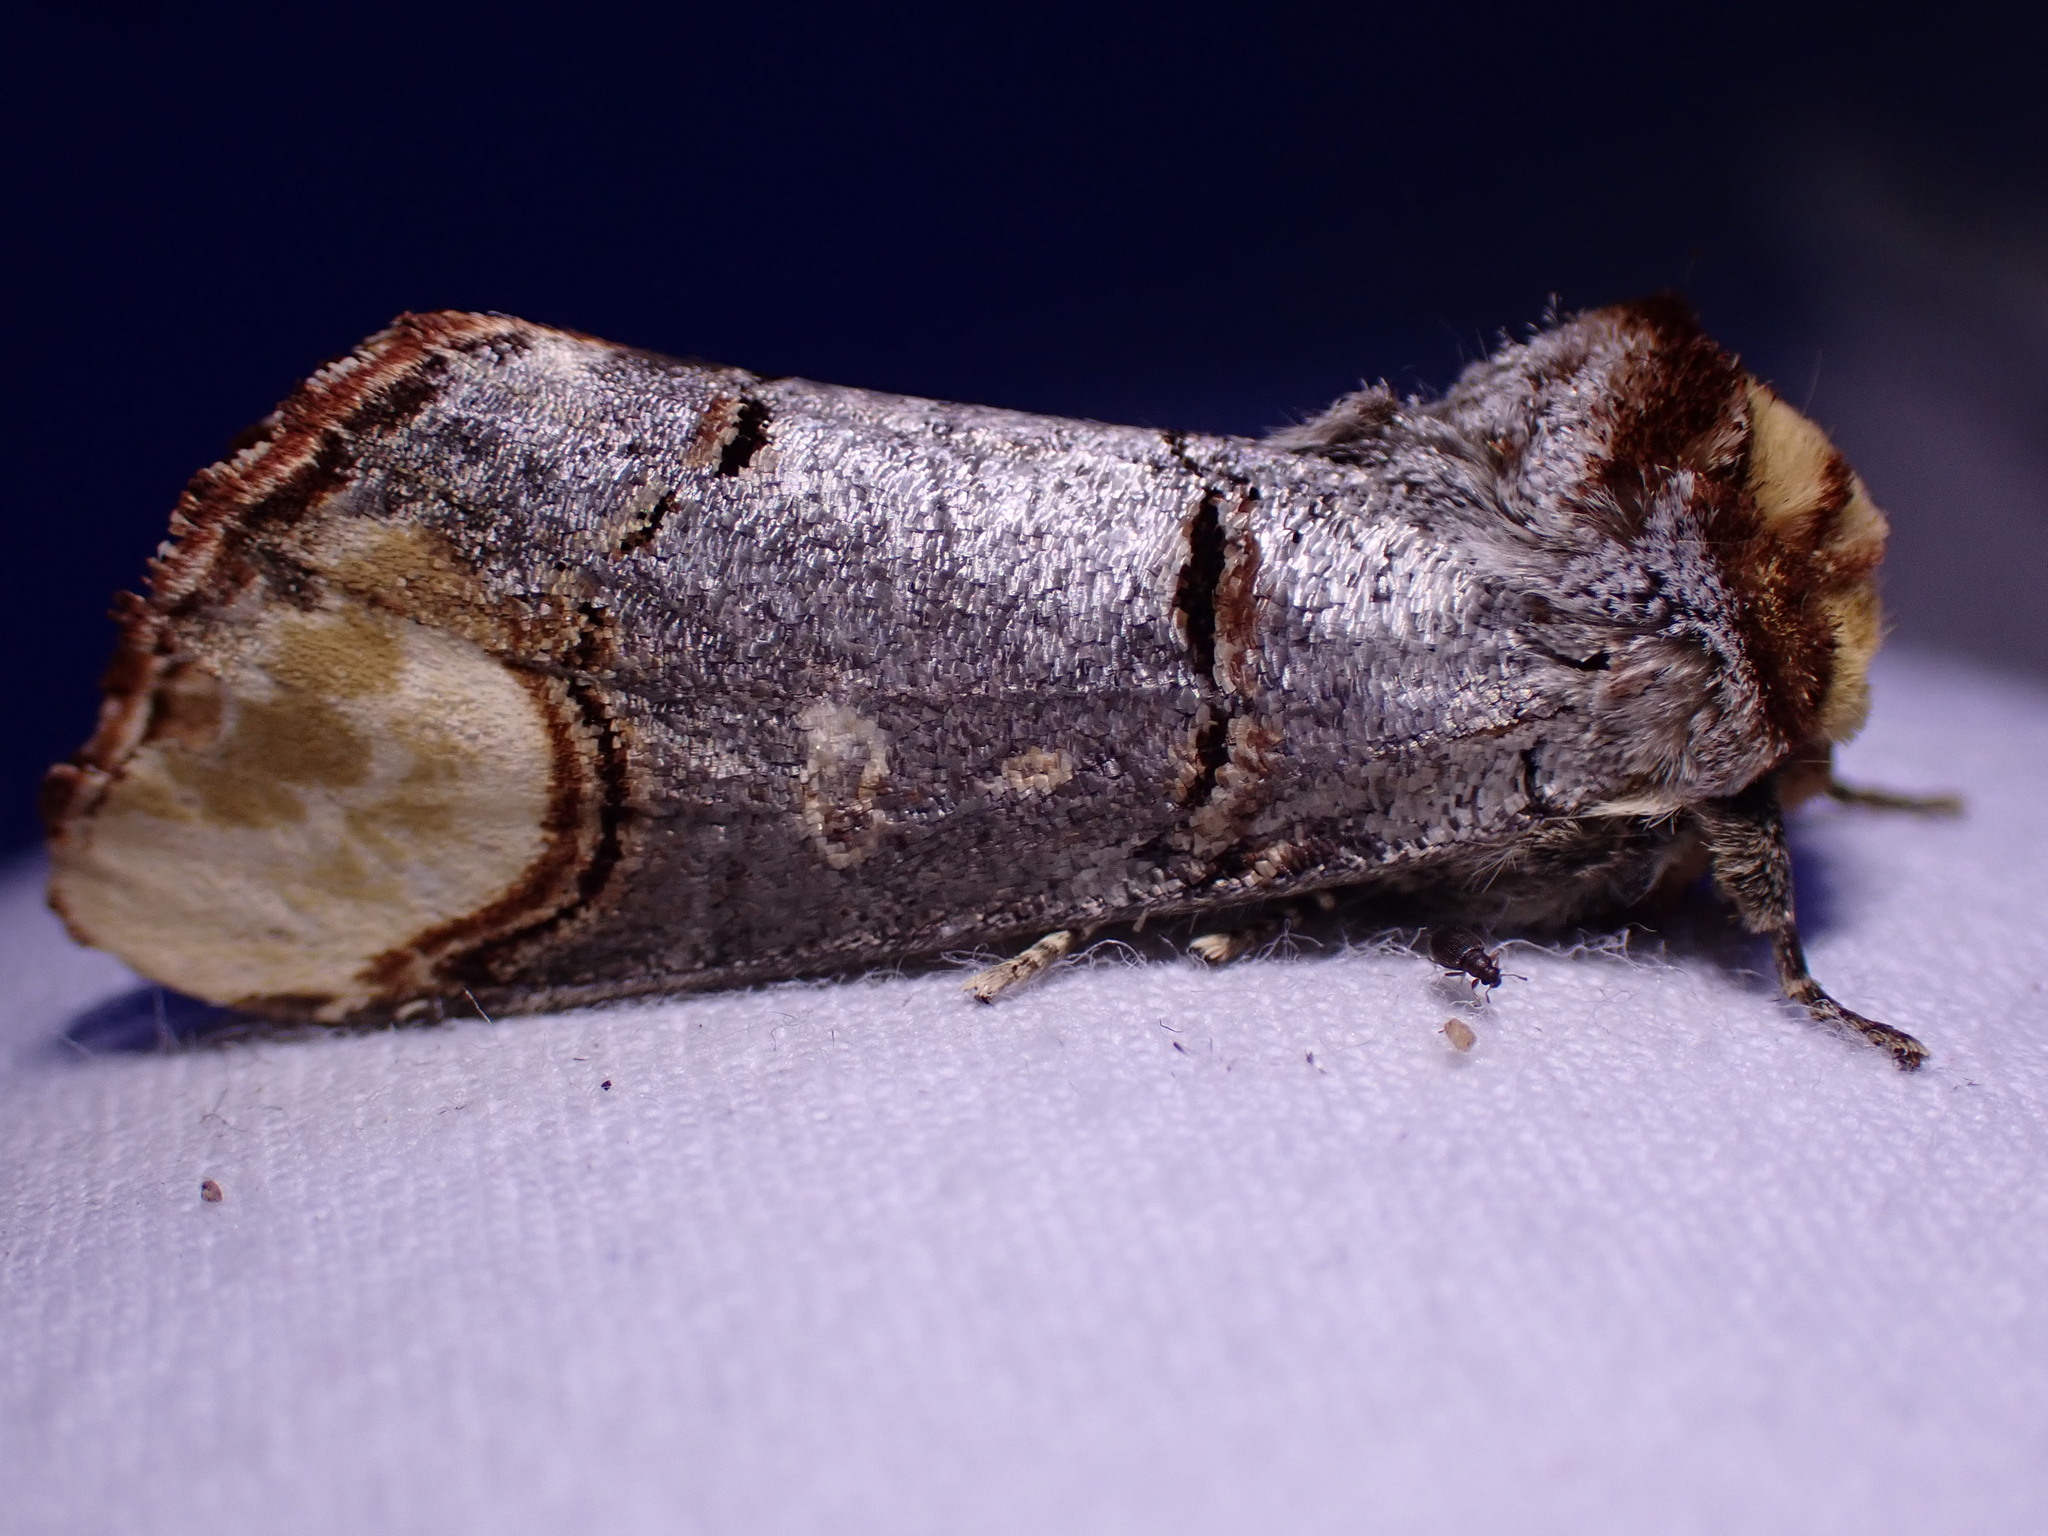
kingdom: Animalia
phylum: Arthropoda
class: Insecta
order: Lepidoptera
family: Notodontidae
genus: Phalera
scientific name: Phalera bucephala
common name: Buff-tip
